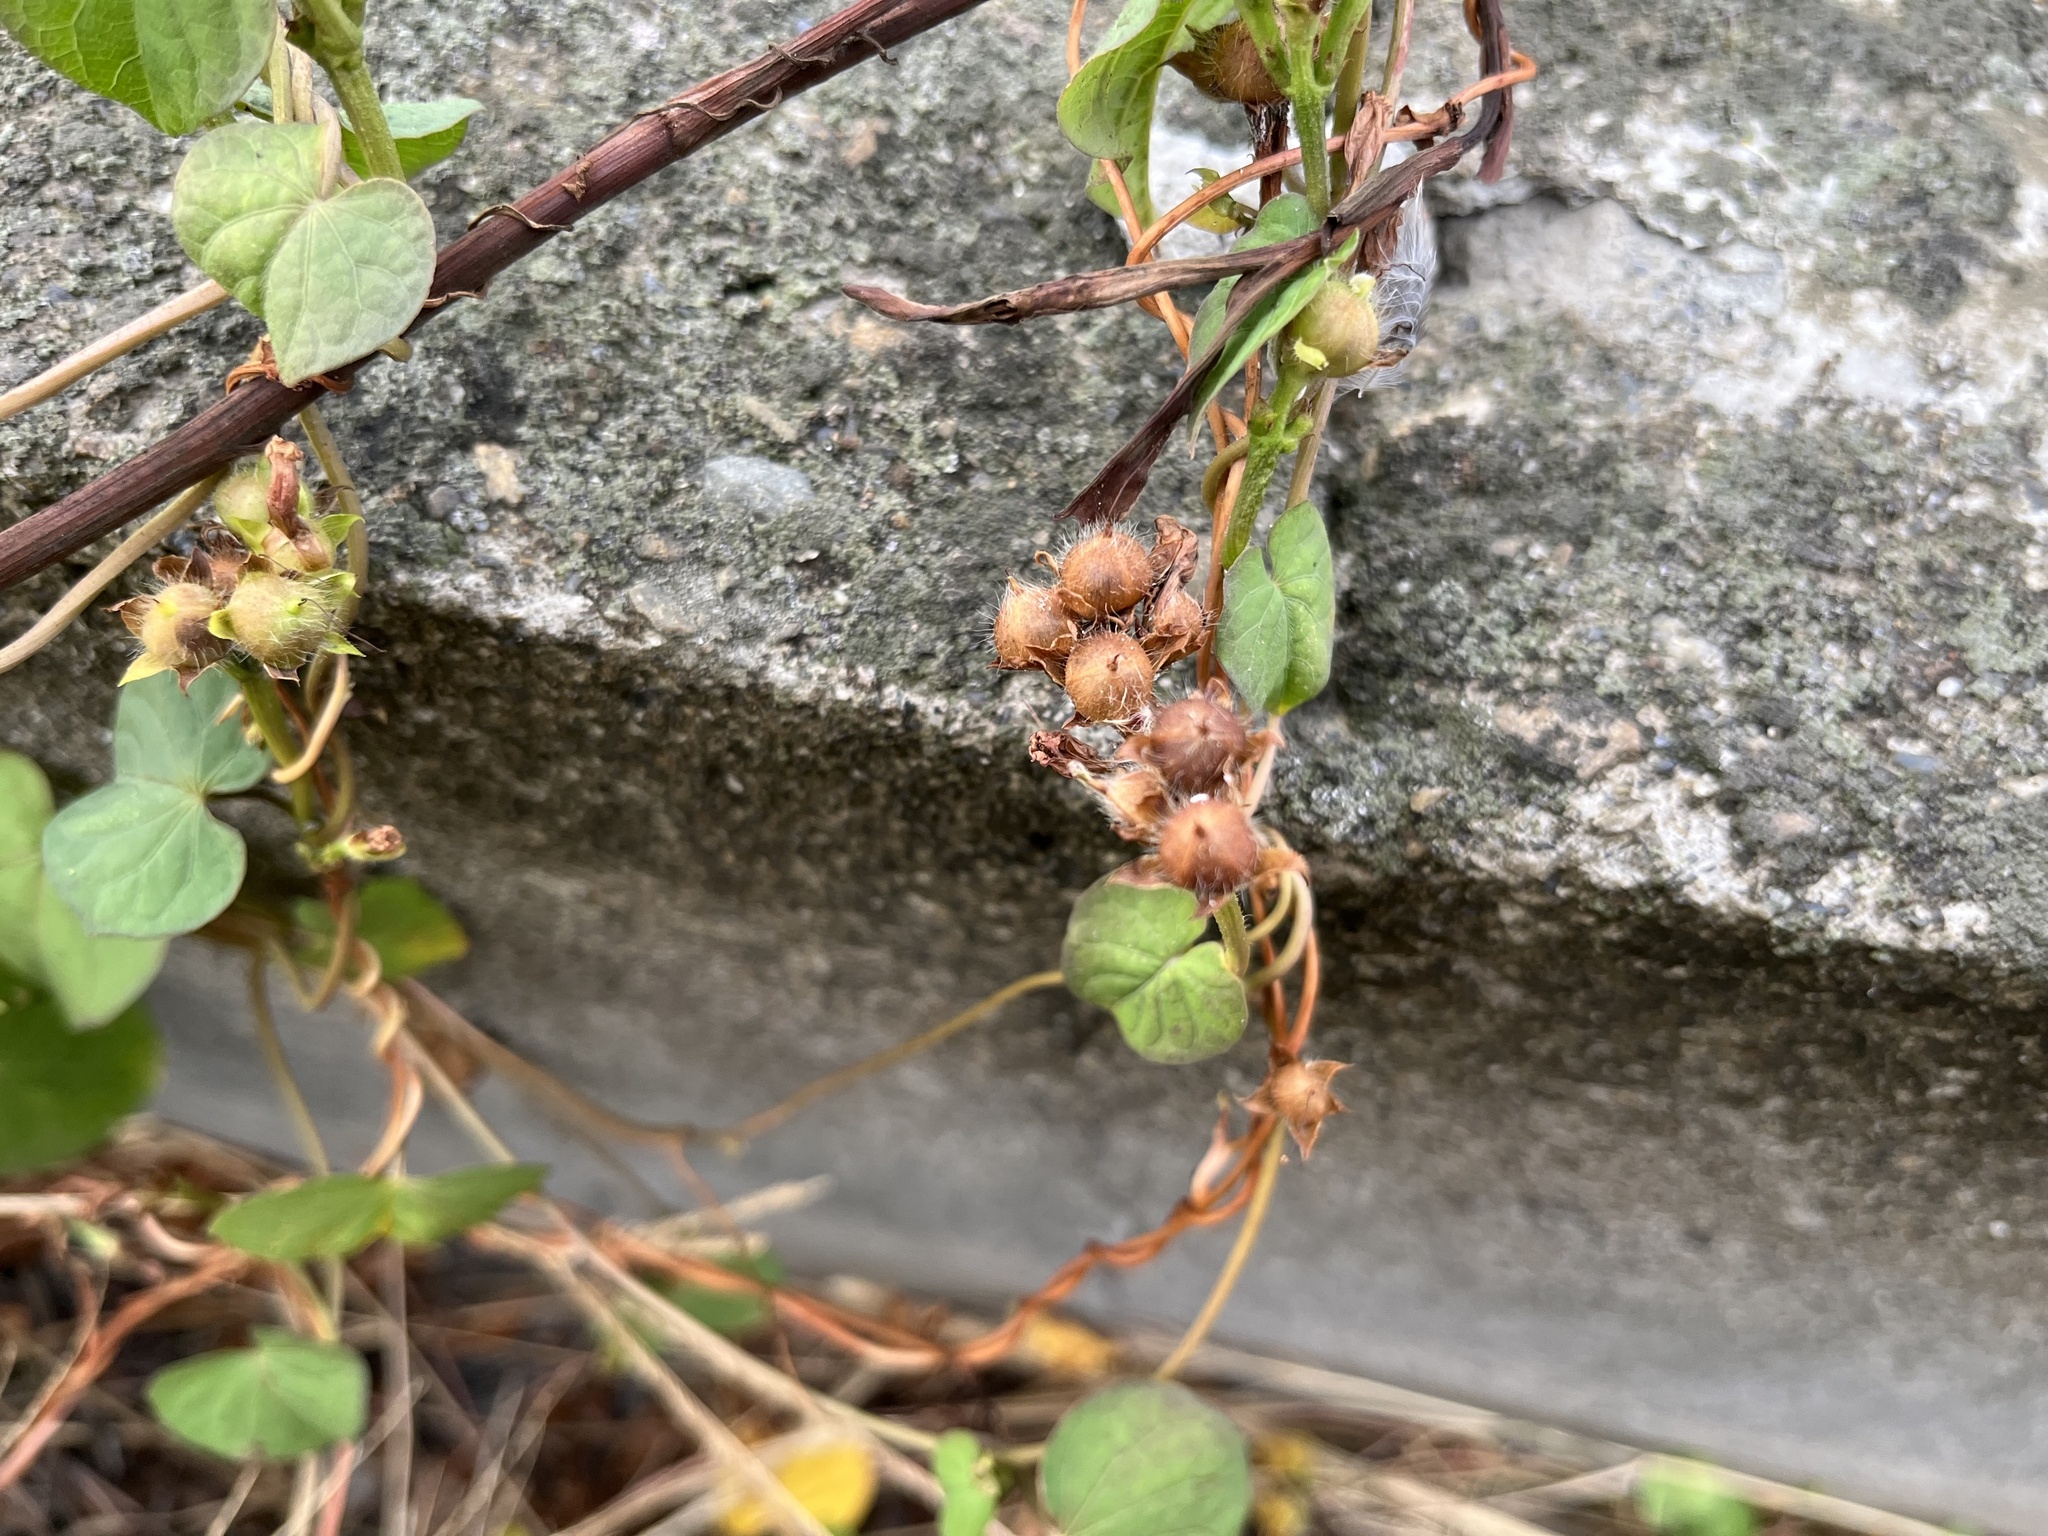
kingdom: Plantae
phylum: Tracheophyta
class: Magnoliopsida
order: Solanales
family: Convolvulaceae
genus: Ipomoea
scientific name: Ipomoea triloba
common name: Little-bell
